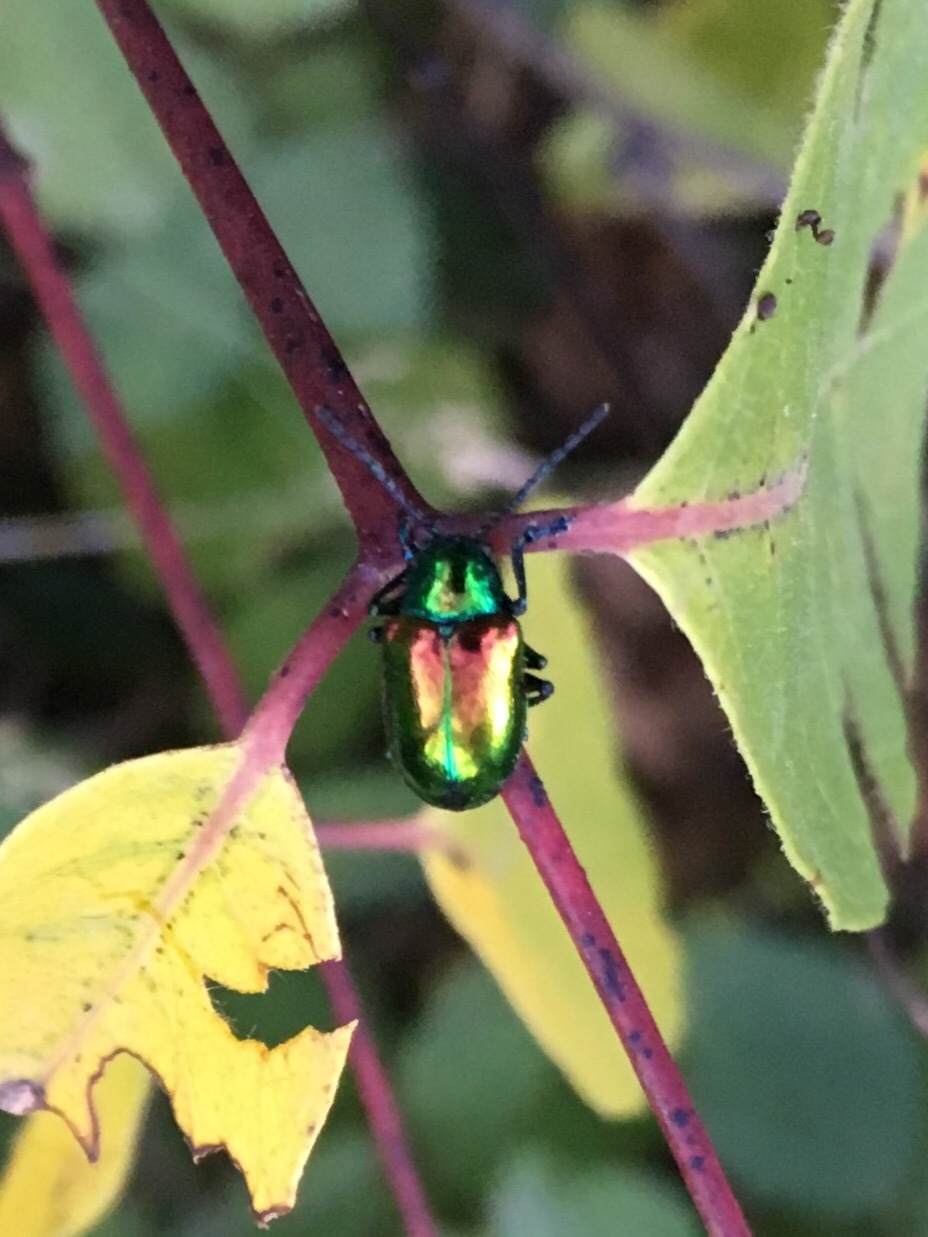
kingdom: Animalia
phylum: Arthropoda
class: Insecta
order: Coleoptera
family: Chrysomelidae
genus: Chrysochus
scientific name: Chrysochus auratus
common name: Dogbane leaf beetle
